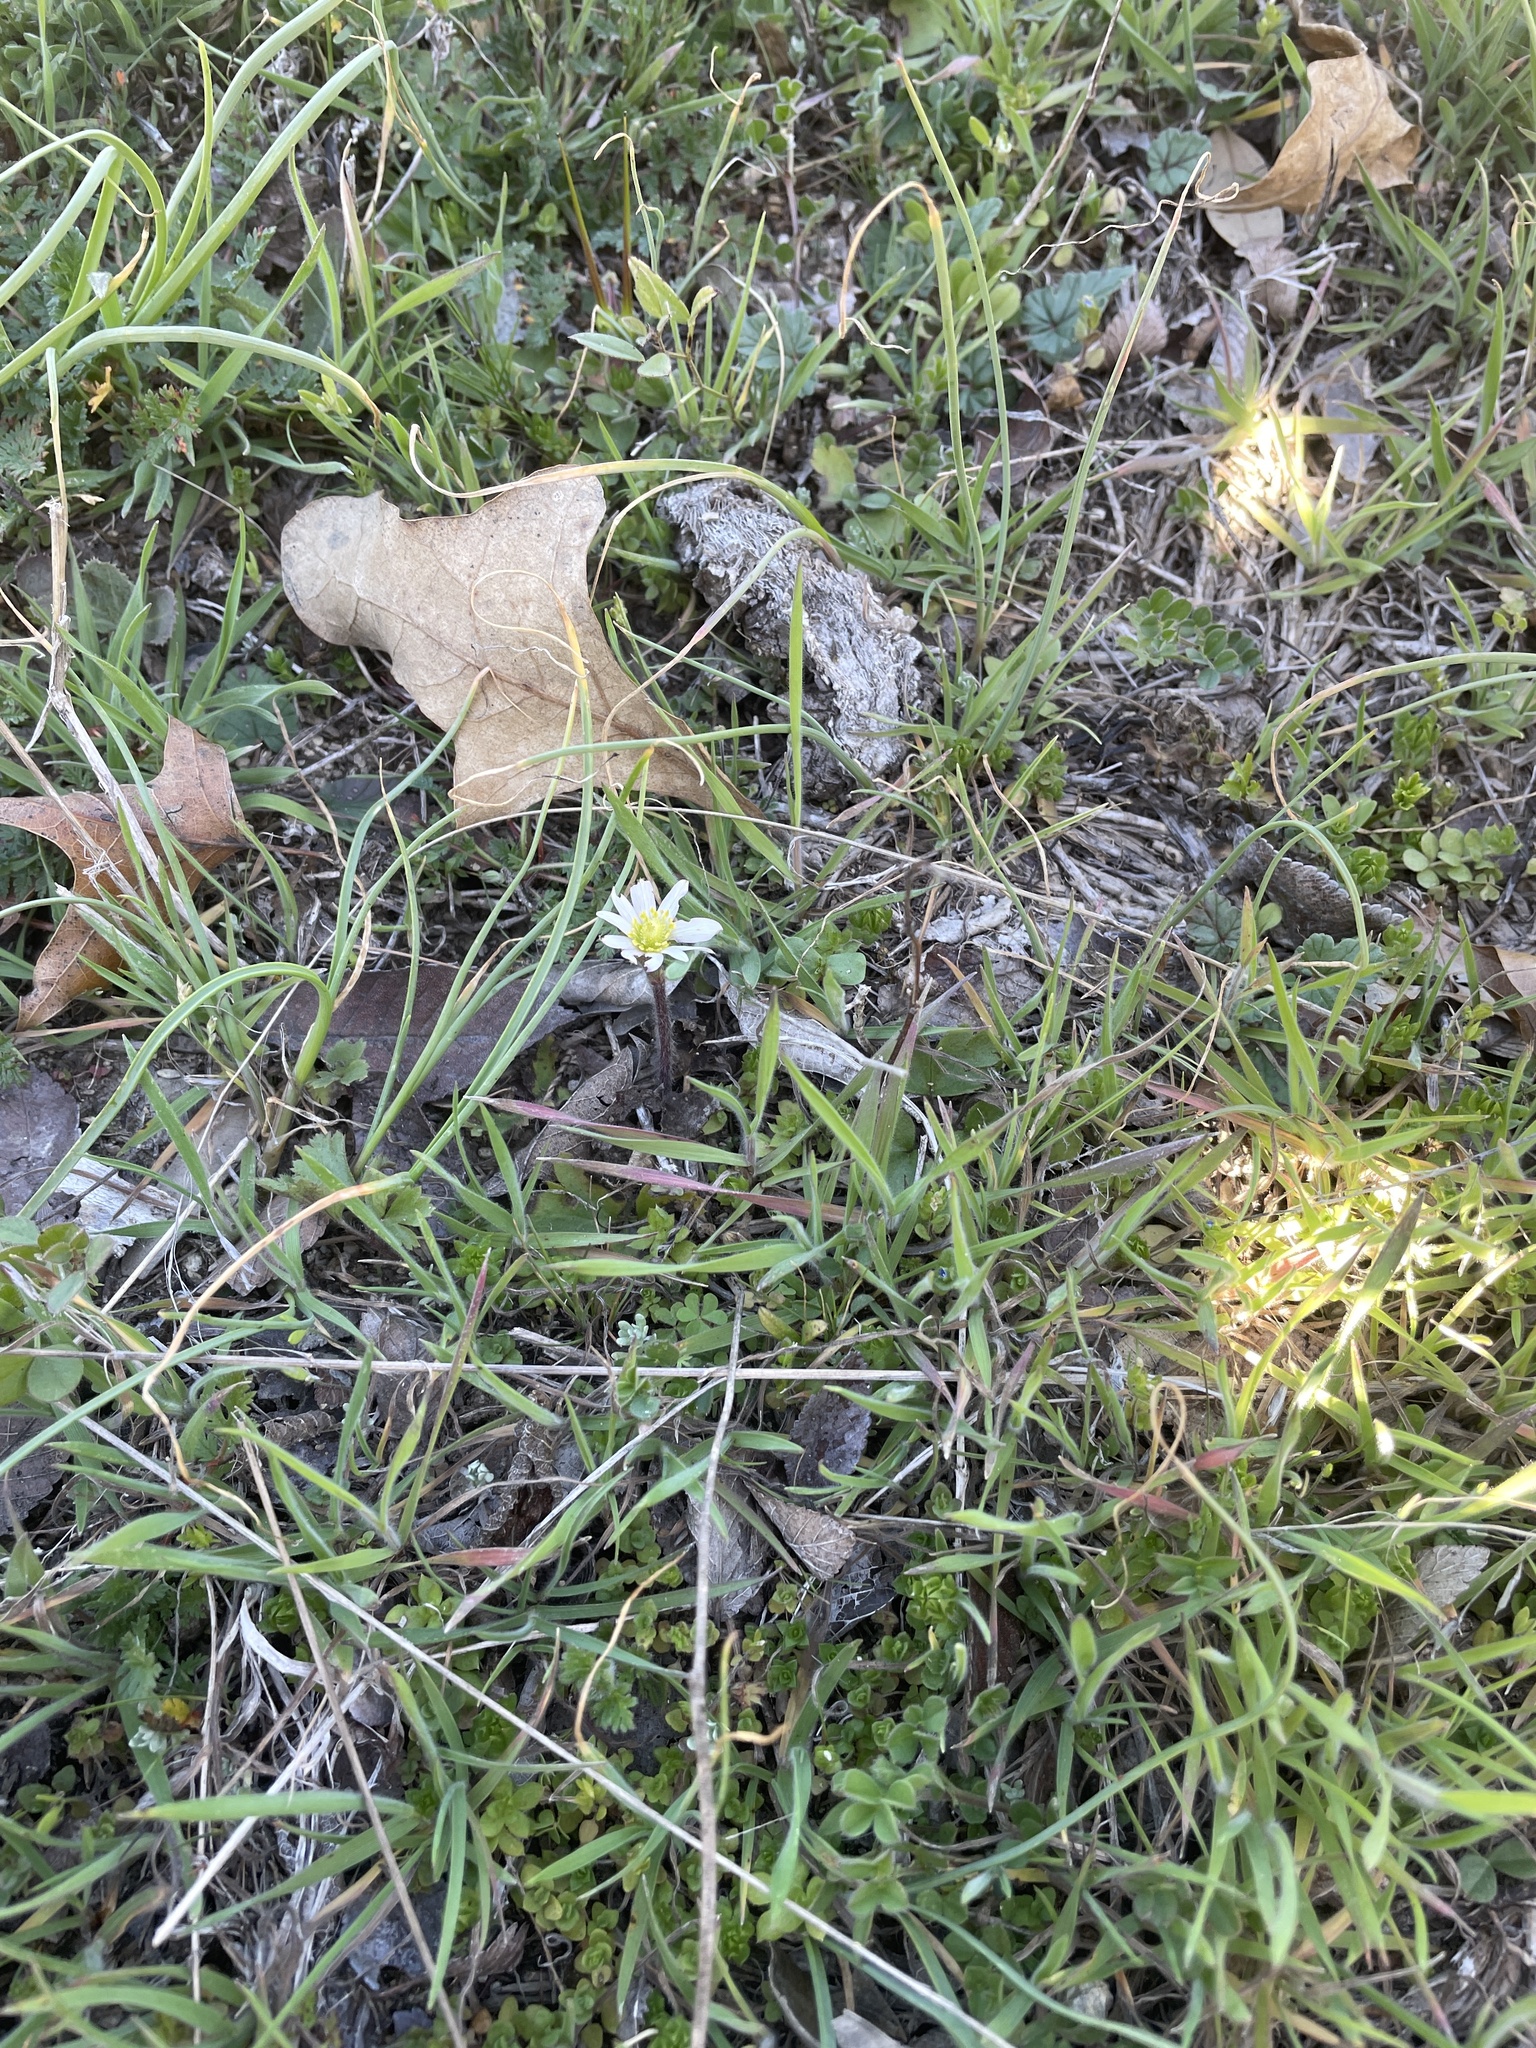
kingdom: Plantae
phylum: Tracheophyta
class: Magnoliopsida
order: Ranunculales
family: Ranunculaceae
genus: Anemone
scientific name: Anemone berlandieri
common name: Ten-petal anemone
